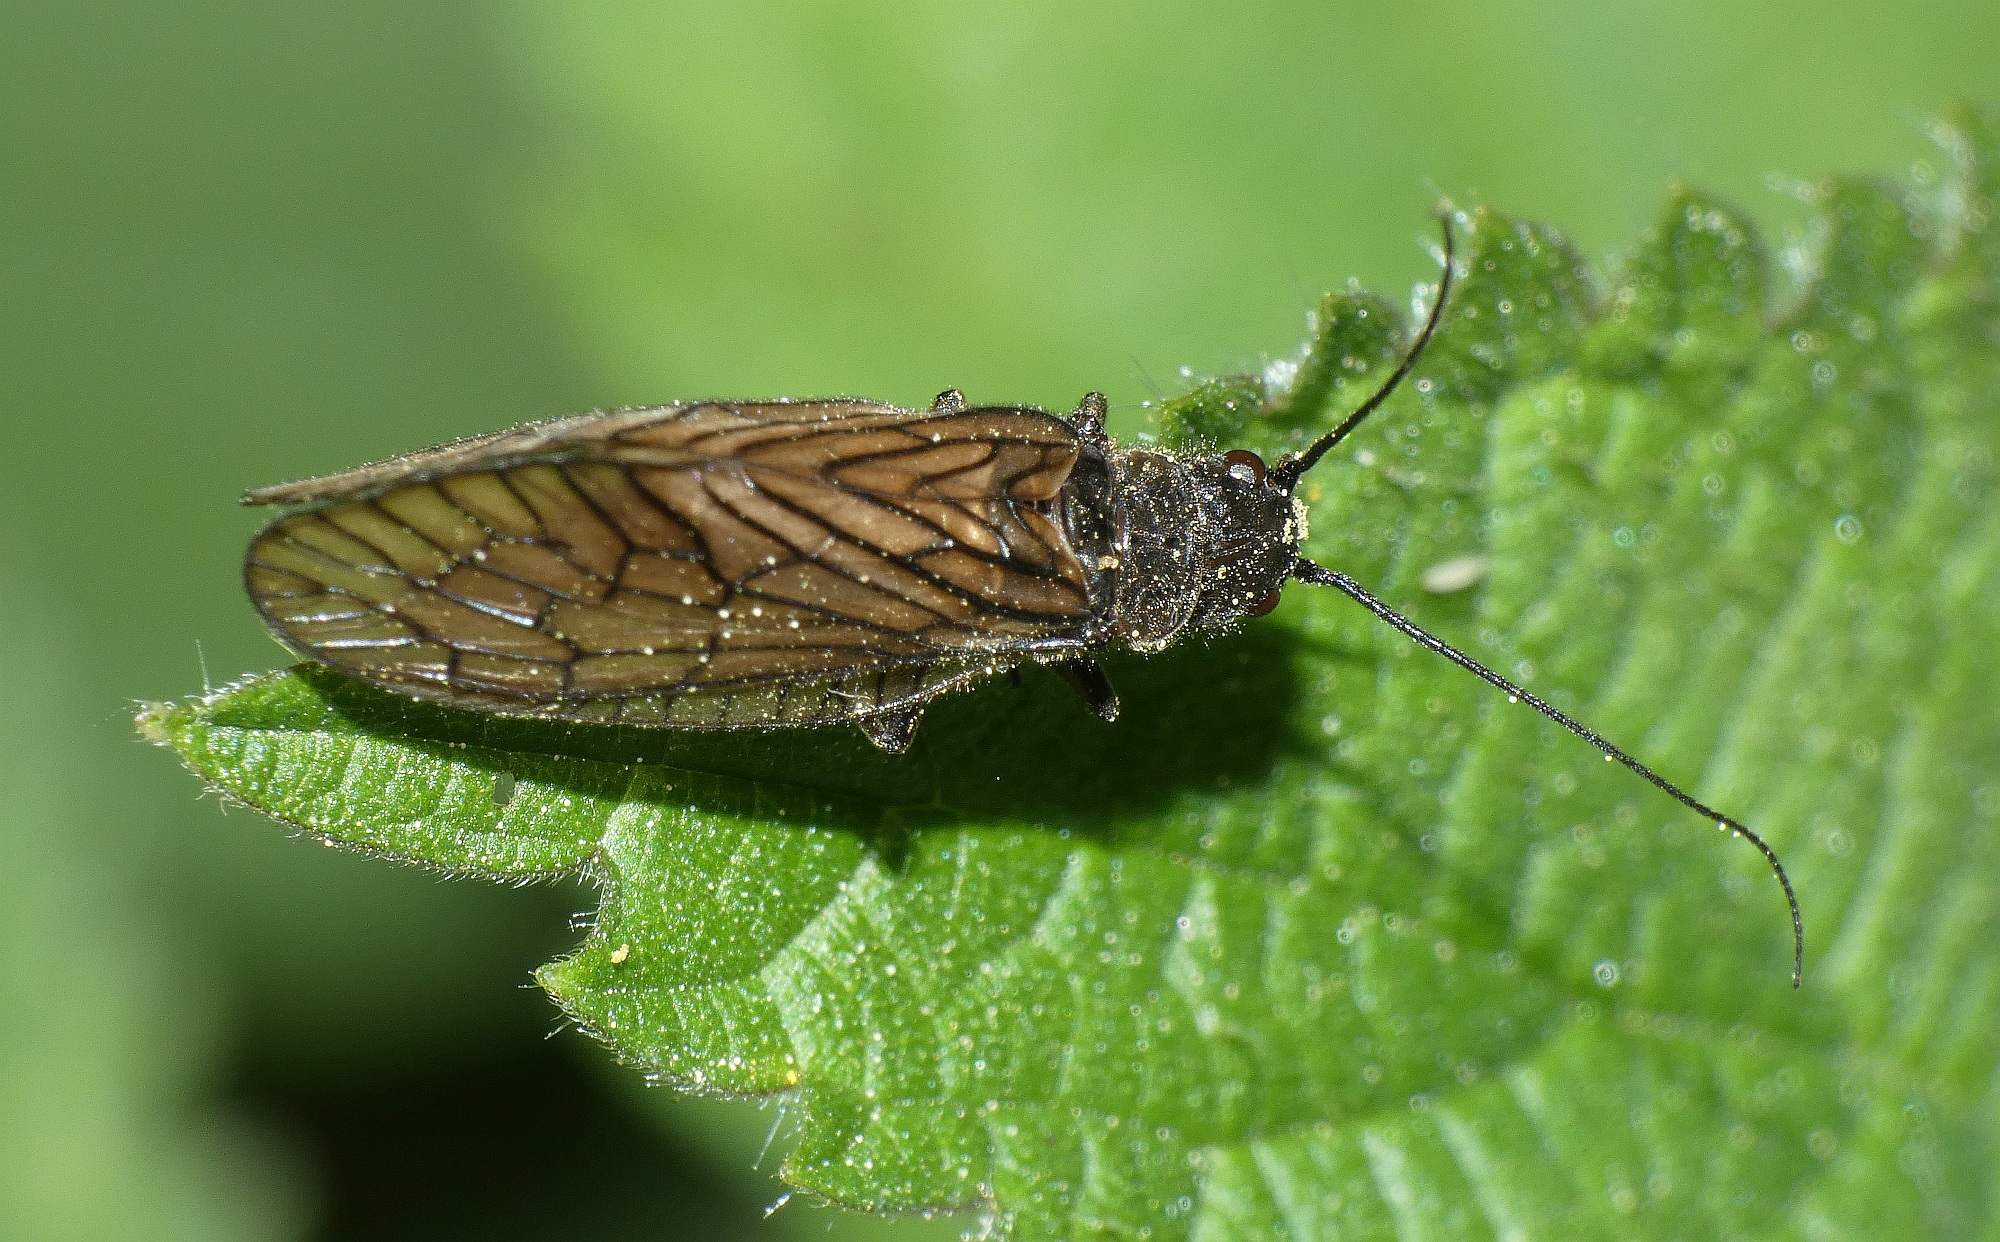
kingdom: Animalia
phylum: Arthropoda
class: Insecta
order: Megaloptera
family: Sialidae
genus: Sialis
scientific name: Sialis
